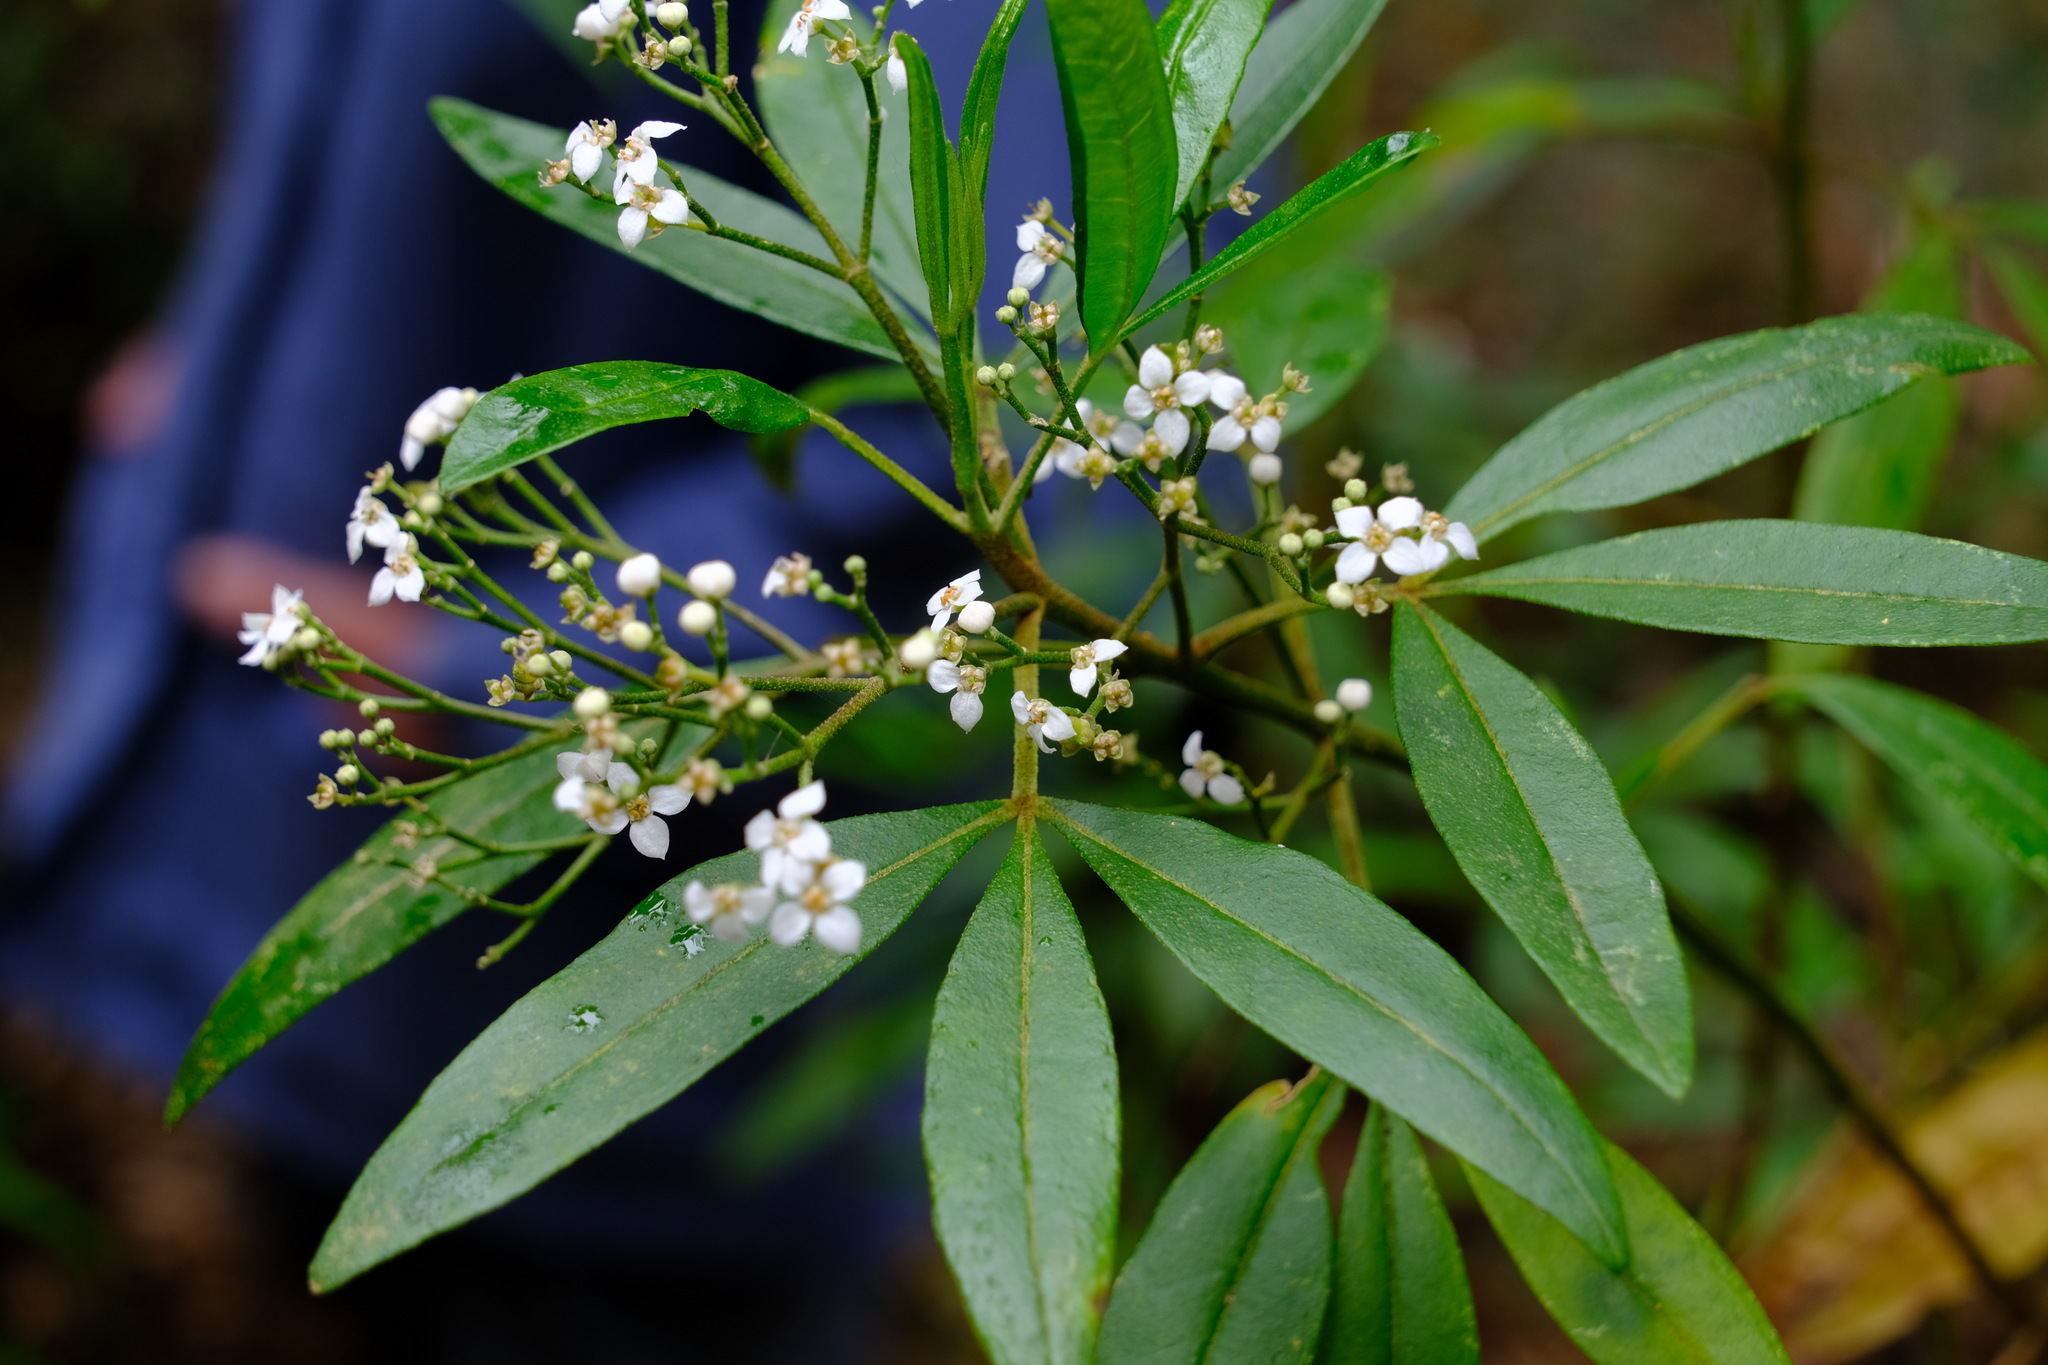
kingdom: Plantae
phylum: Tracheophyta
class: Magnoliopsida
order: Sapindales
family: Rutaceae
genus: Zieria
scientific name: Zieria arborescens
